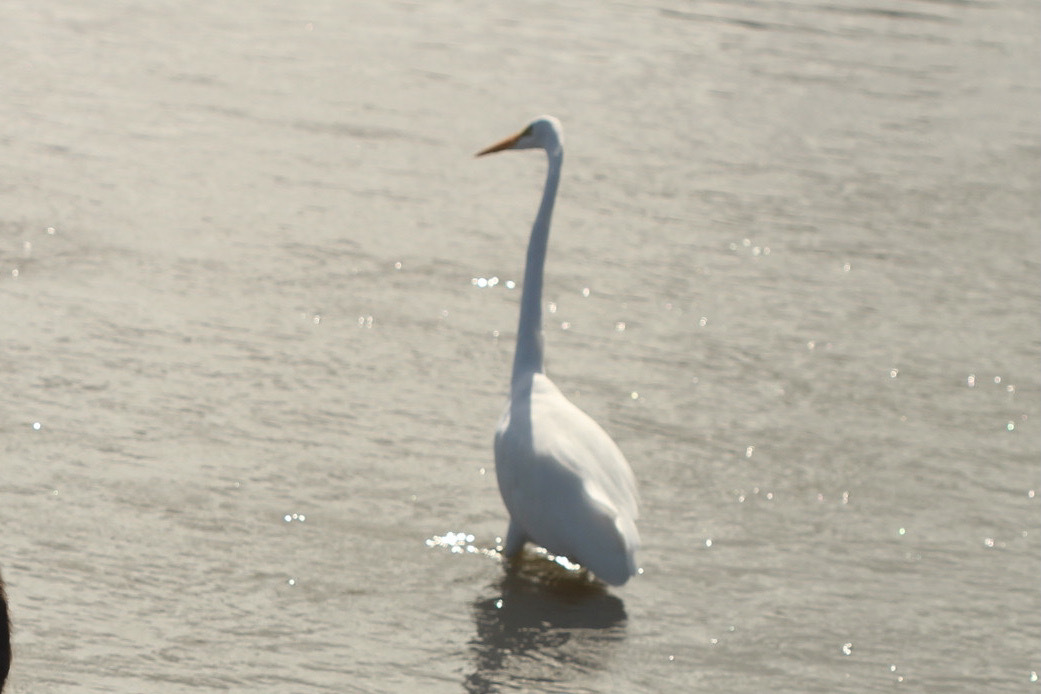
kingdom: Animalia
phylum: Chordata
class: Aves
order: Pelecaniformes
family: Ardeidae
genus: Ardea
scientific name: Ardea alba
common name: Great egret
